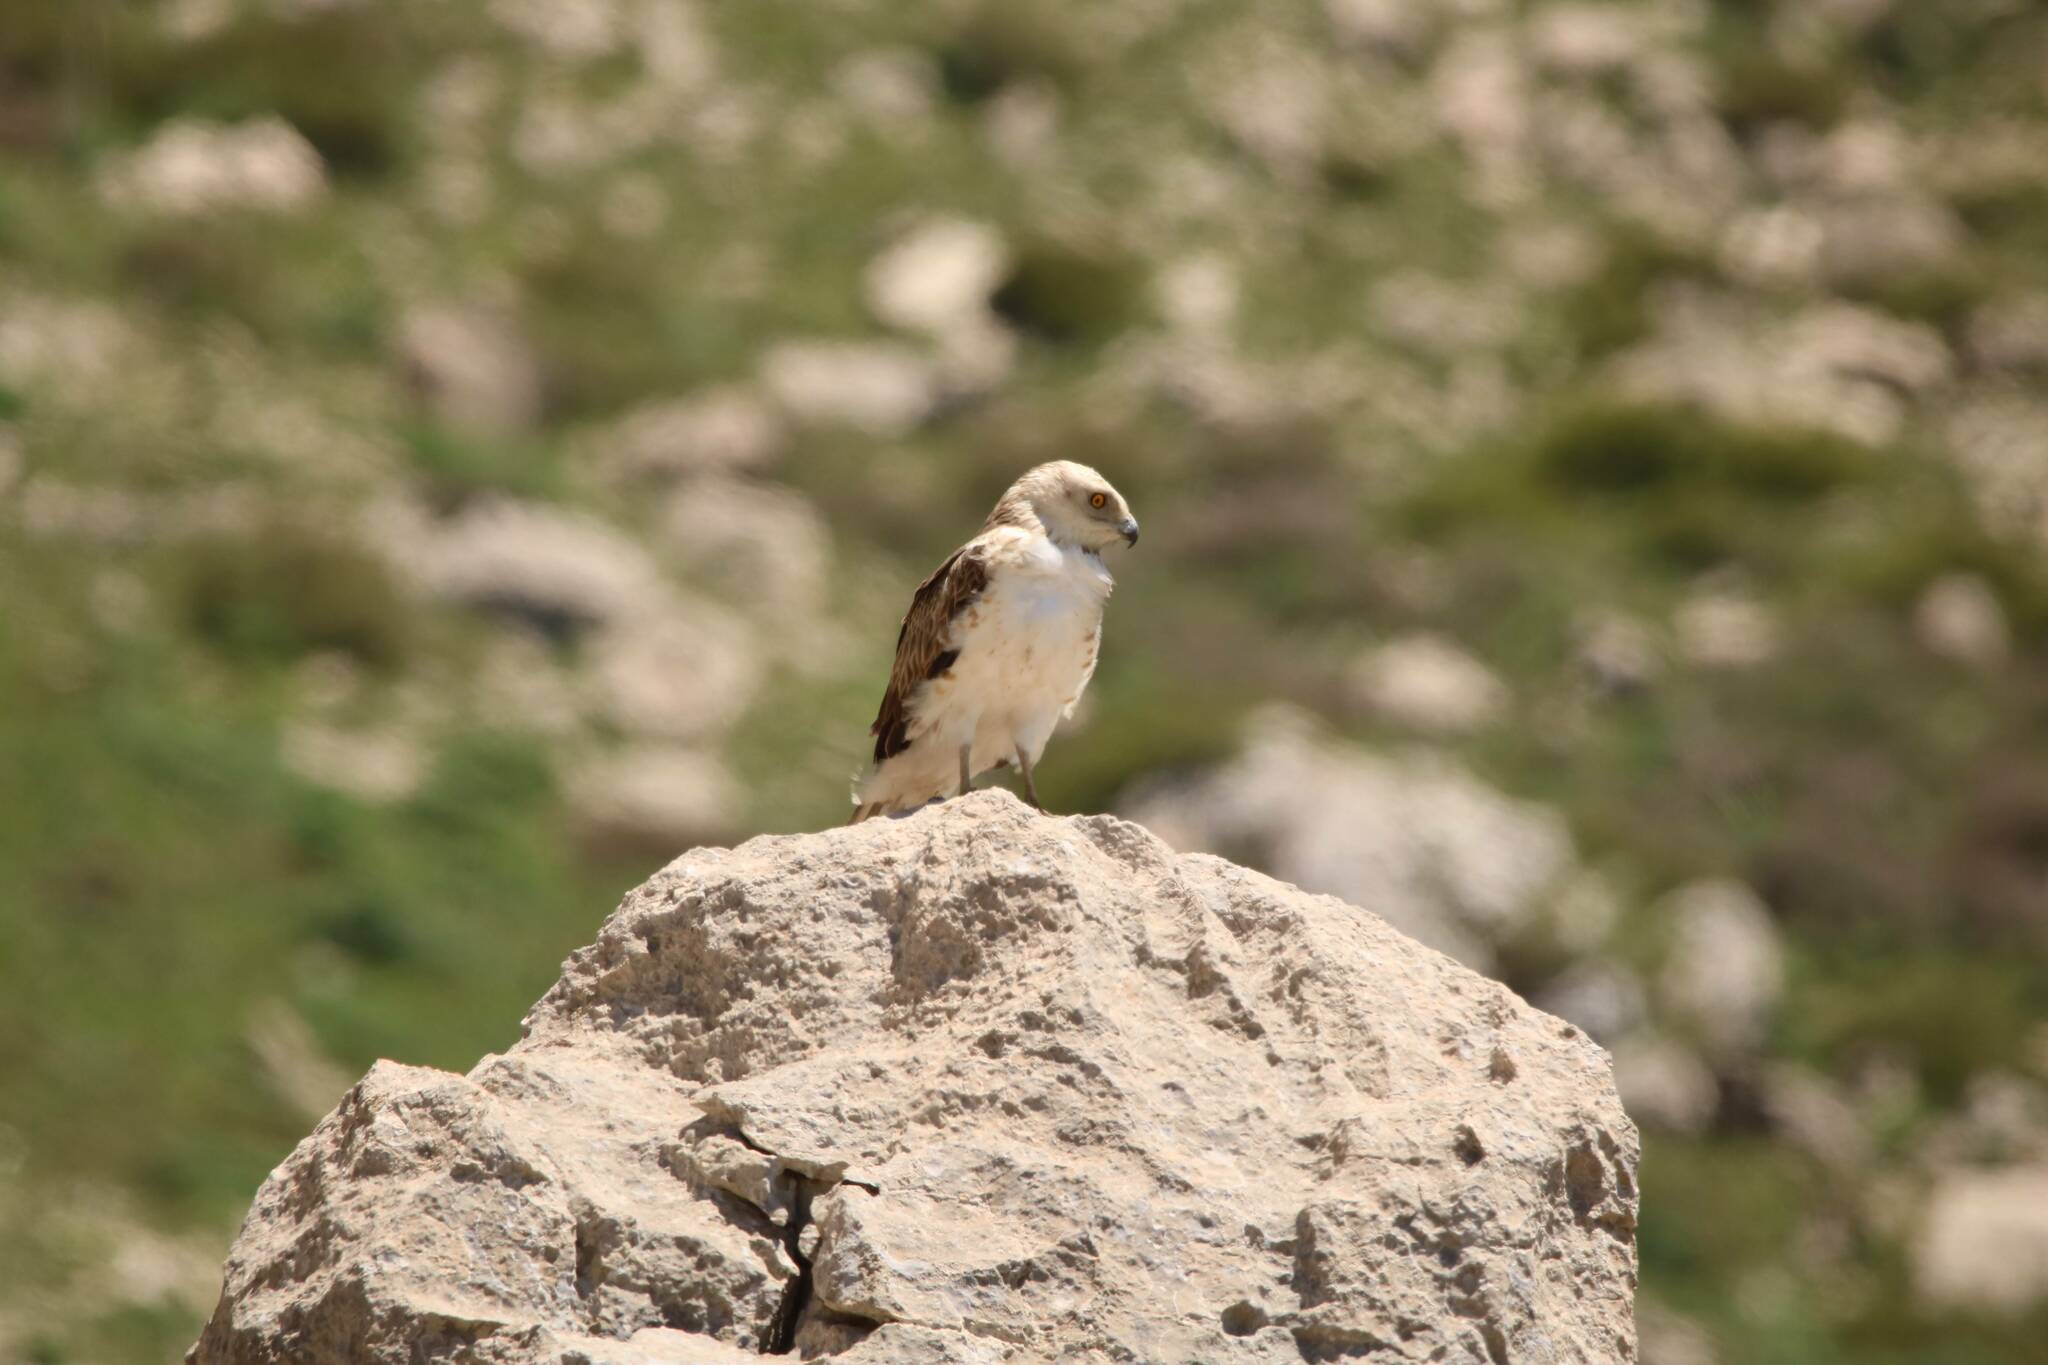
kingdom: Animalia
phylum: Chordata
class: Aves
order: Accipitriformes
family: Accipitridae
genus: Circaetus
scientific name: Circaetus gallicus
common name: Short-toed snake eagle
